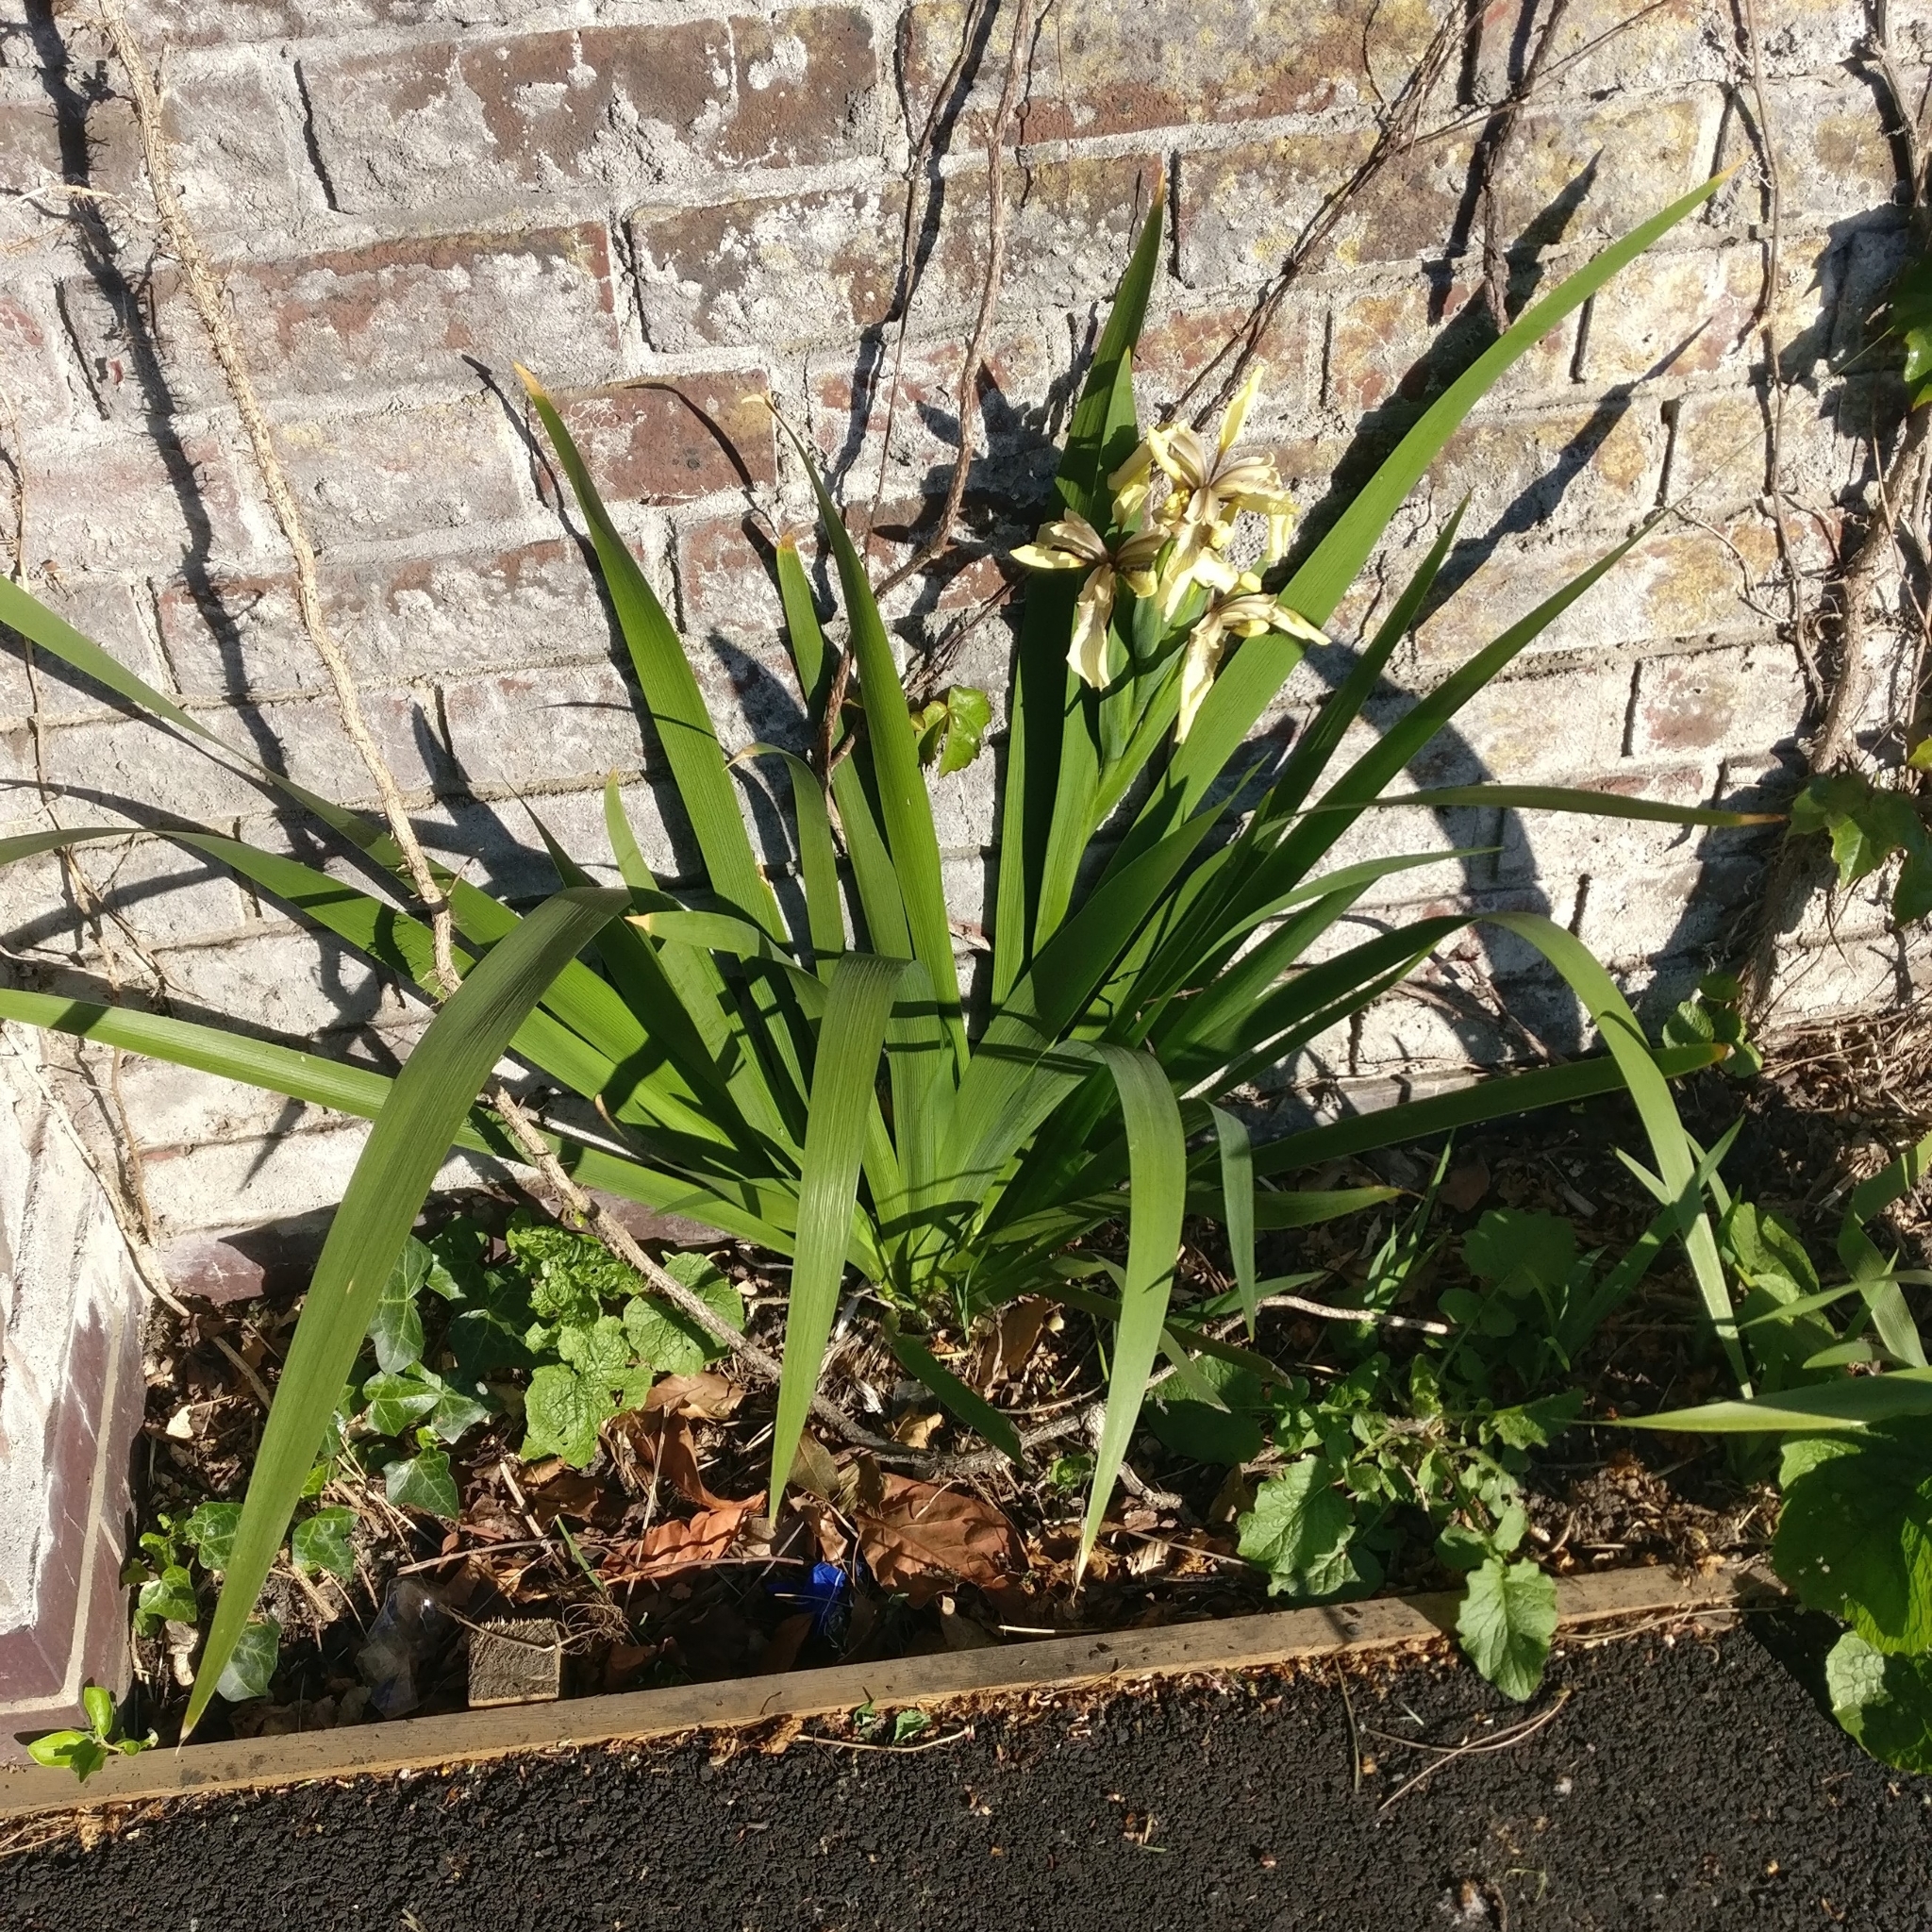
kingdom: Plantae
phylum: Tracheophyta
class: Liliopsida
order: Asparagales
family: Iridaceae
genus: Iris
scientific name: Iris foetidissima
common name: Stinking iris
